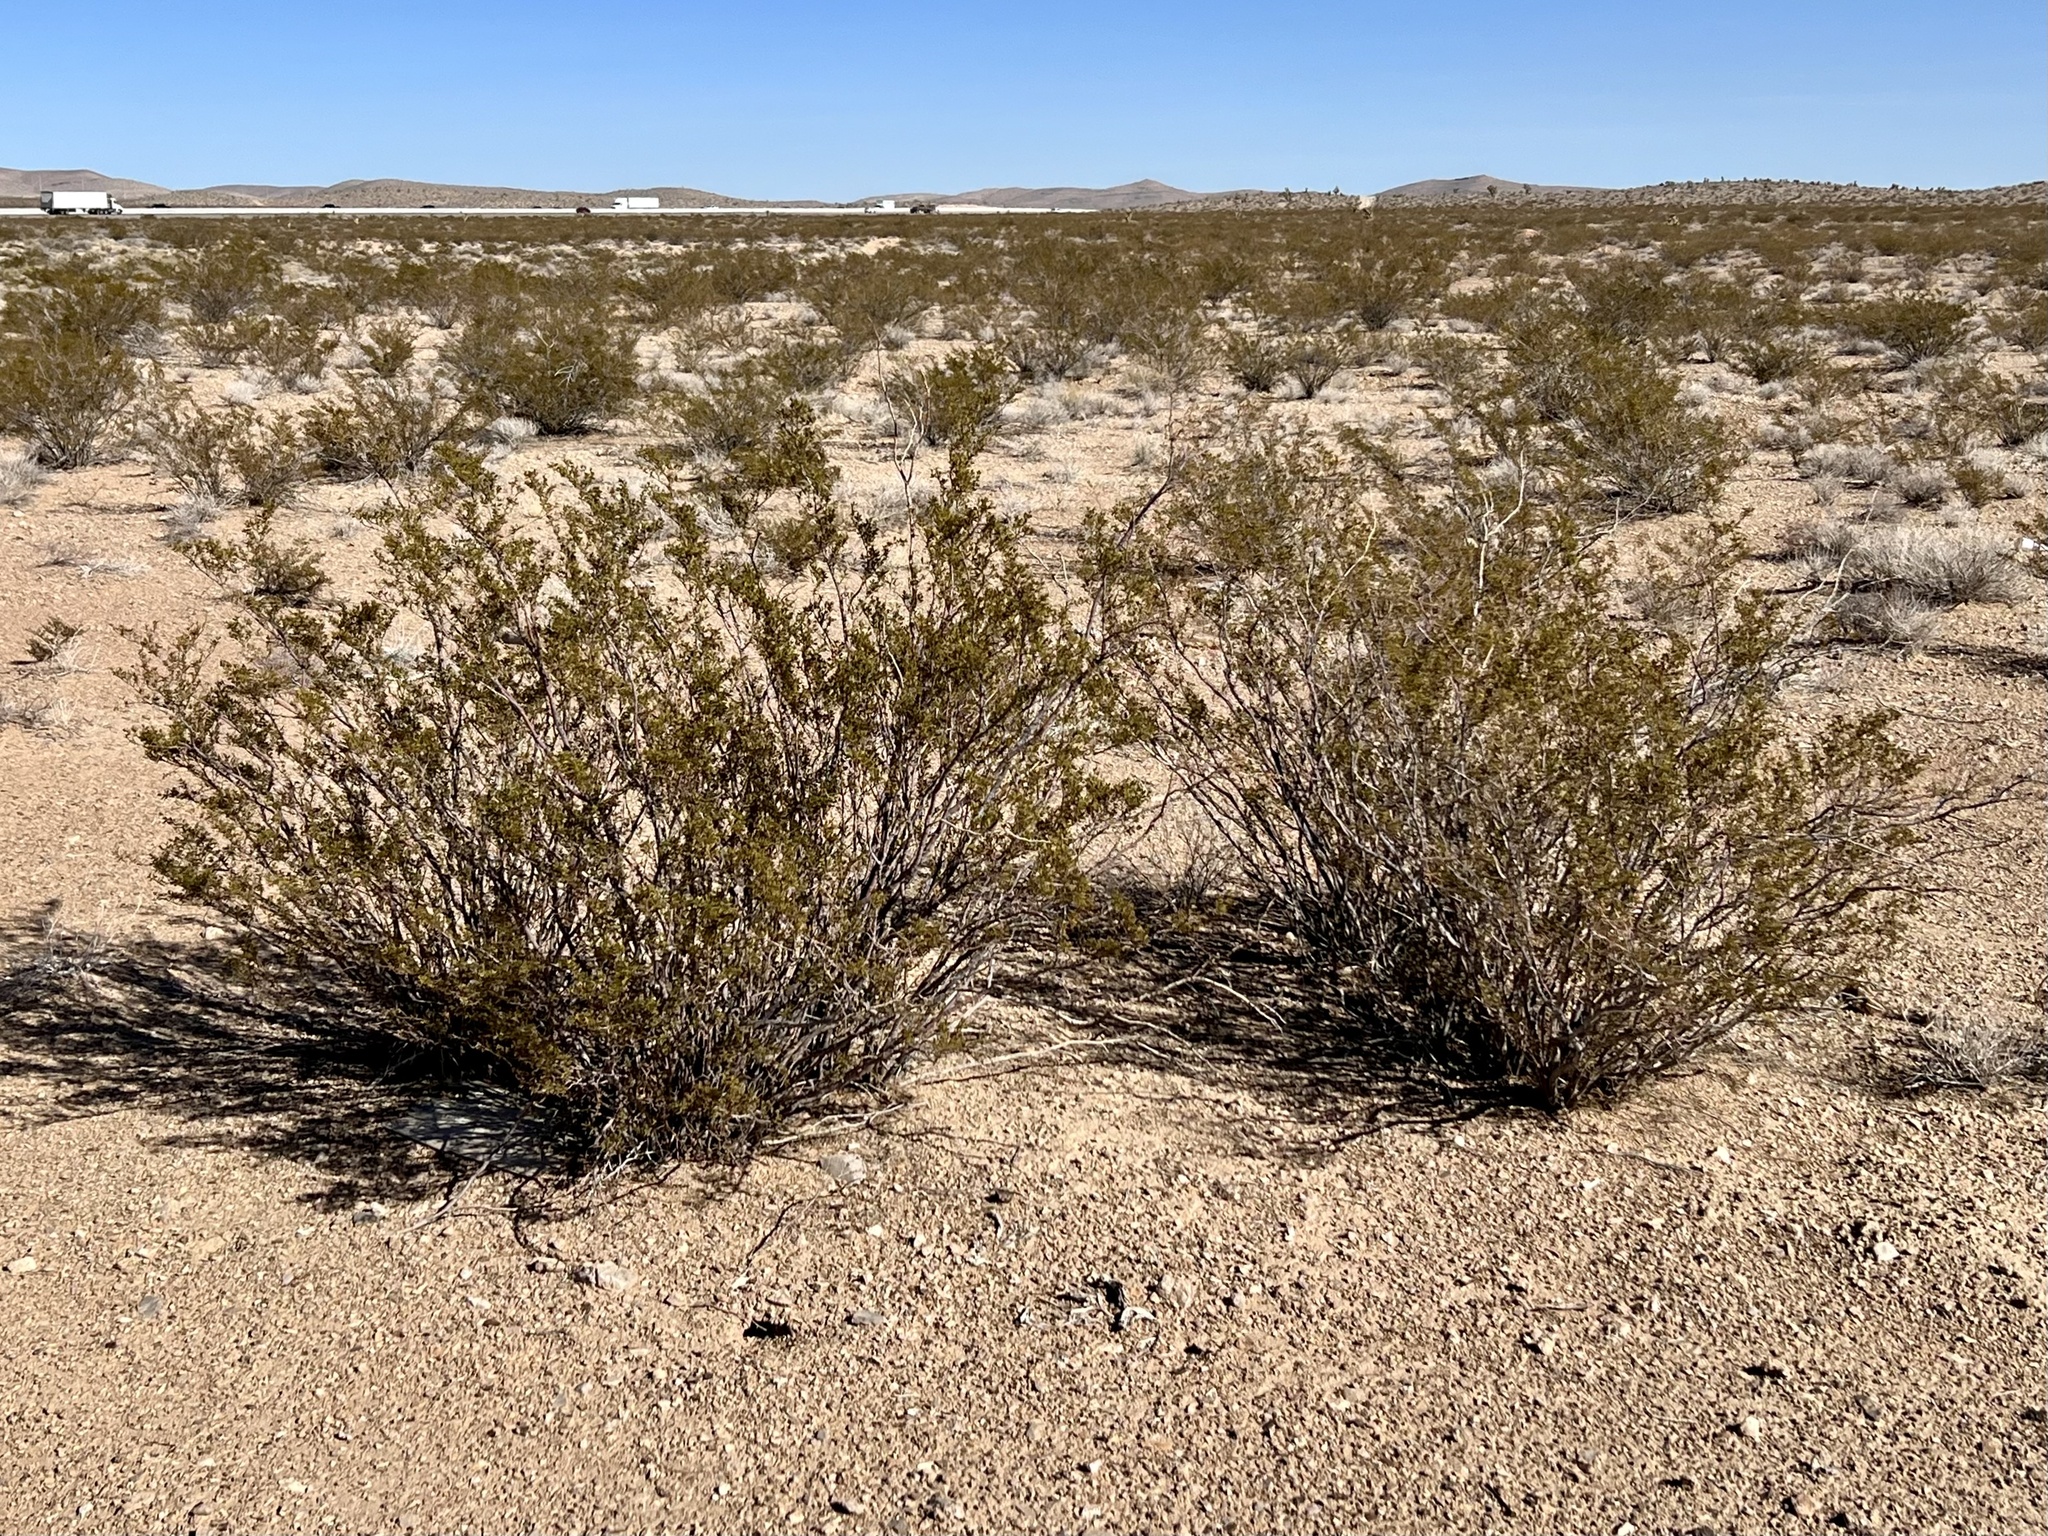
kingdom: Plantae
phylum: Tracheophyta
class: Magnoliopsida
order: Zygophyllales
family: Zygophyllaceae
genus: Larrea
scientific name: Larrea tridentata
